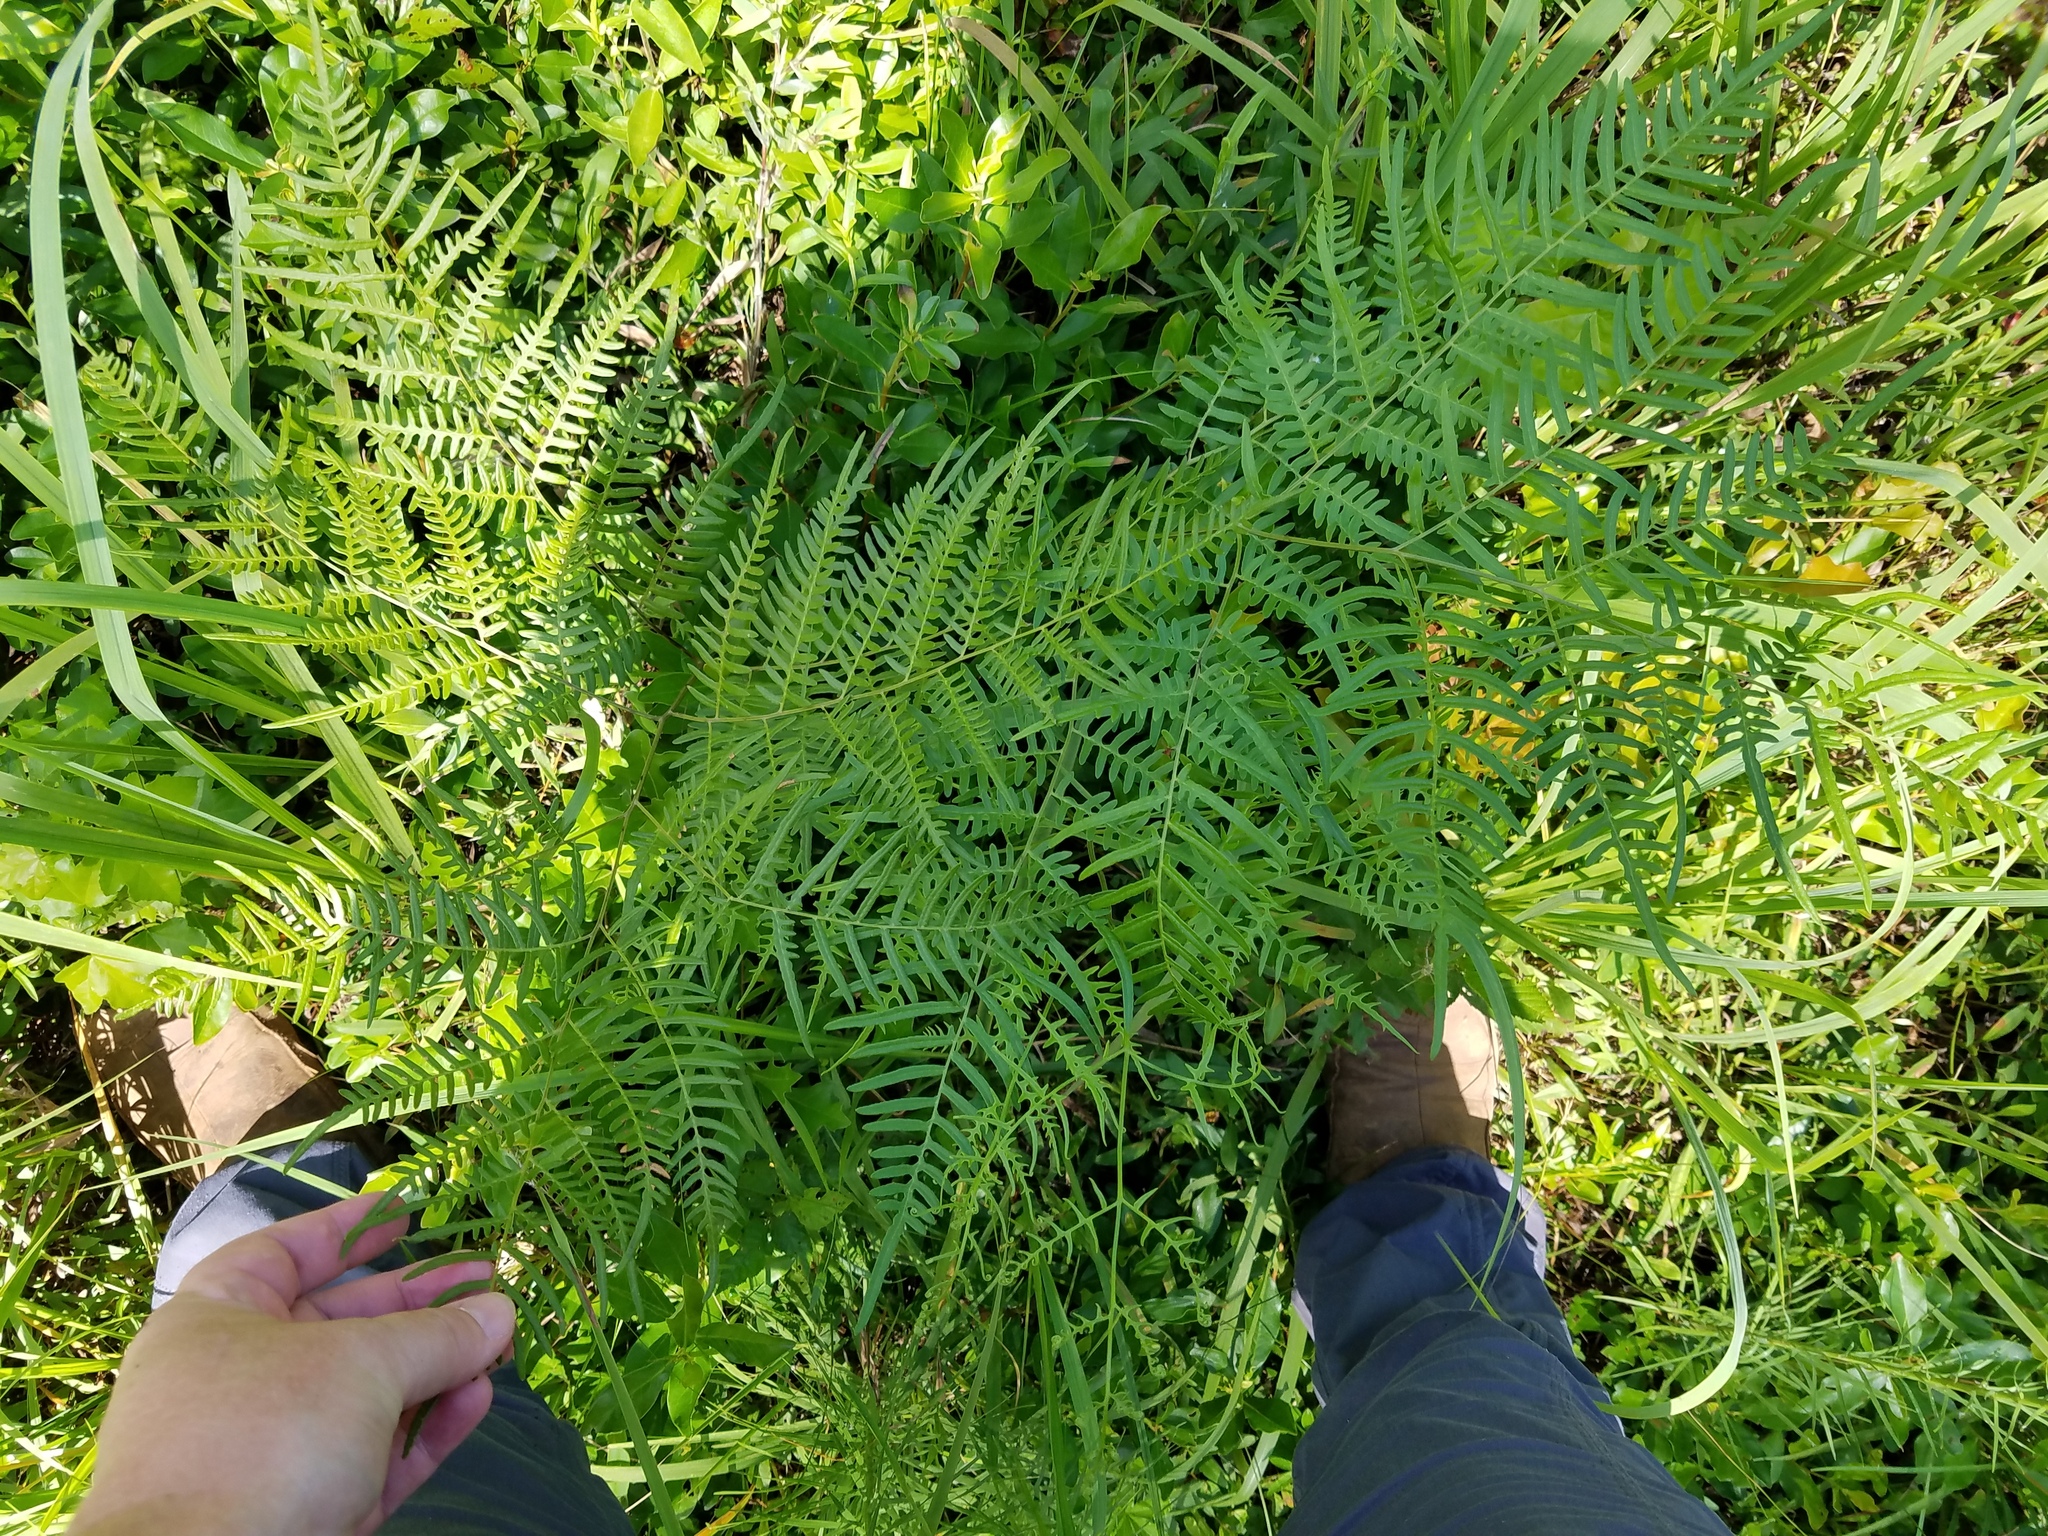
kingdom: Plantae
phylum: Tracheophyta
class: Polypodiopsida
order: Polypodiales
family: Dennstaedtiaceae
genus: Pteridium
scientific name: Pteridium aquilinum
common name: Bracken
